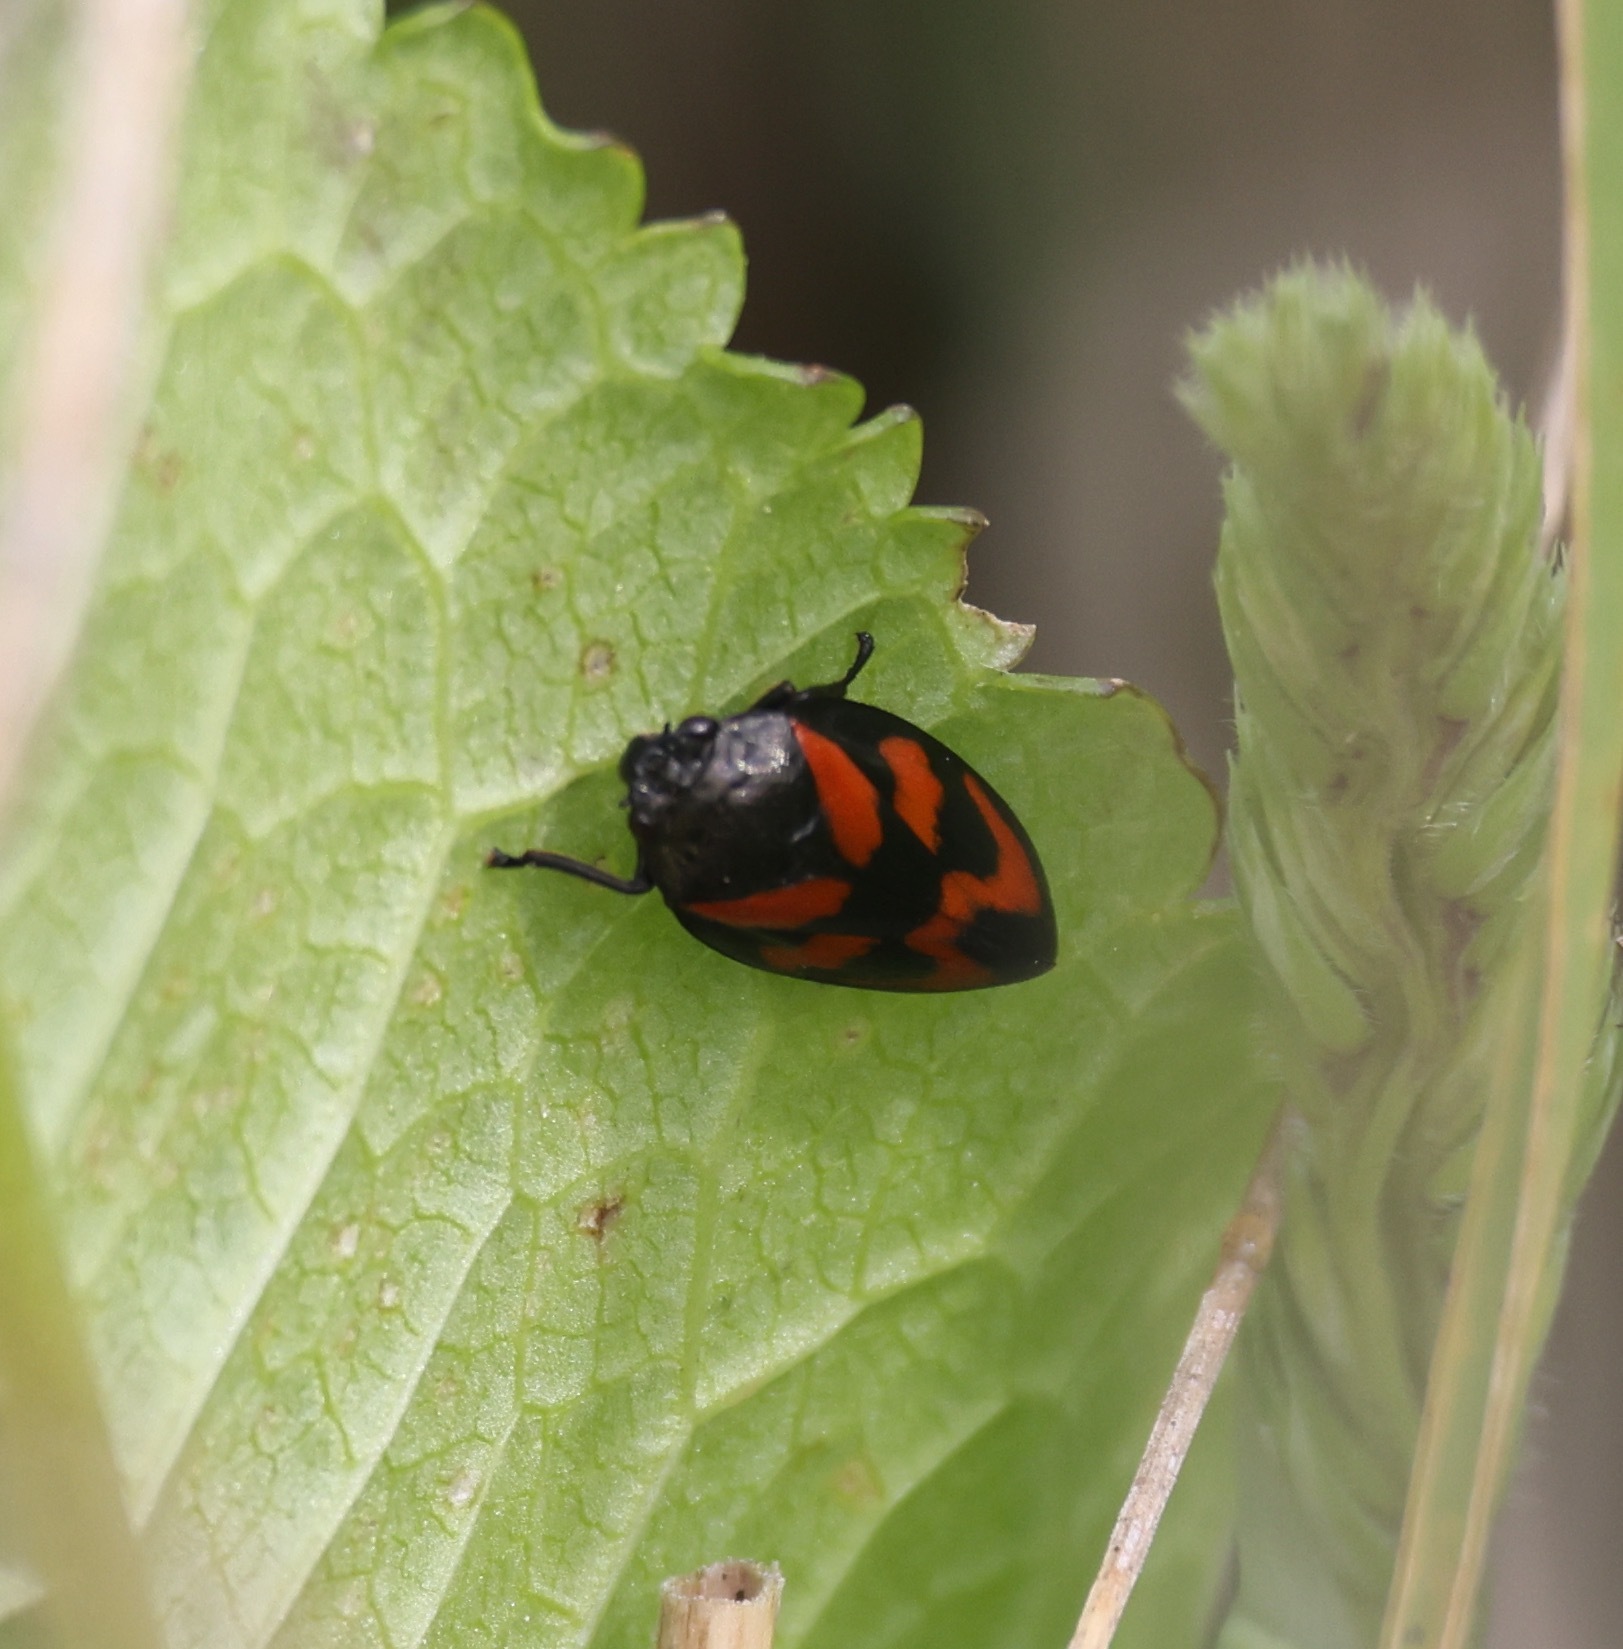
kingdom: Animalia
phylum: Arthropoda
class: Insecta
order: Hemiptera
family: Cercopidae
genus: Cercopis
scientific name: Cercopis vulnerata
